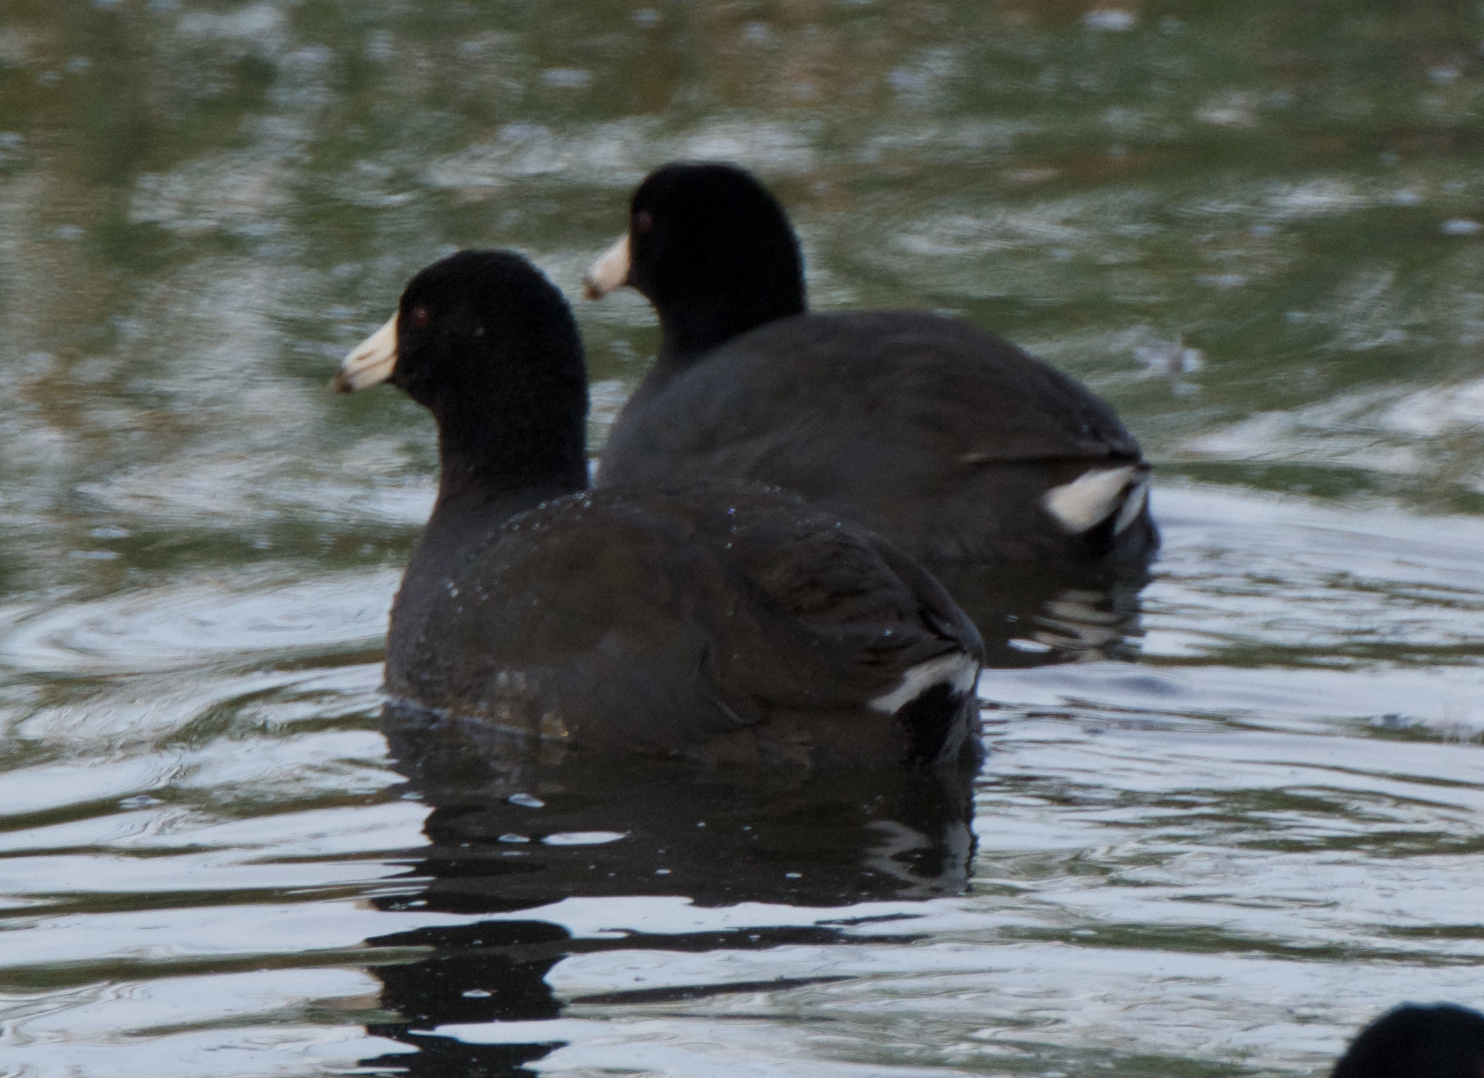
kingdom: Animalia
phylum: Chordata
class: Aves
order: Gruiformes
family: Rallidae
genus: Fulica
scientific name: Fulica americana
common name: American coot
